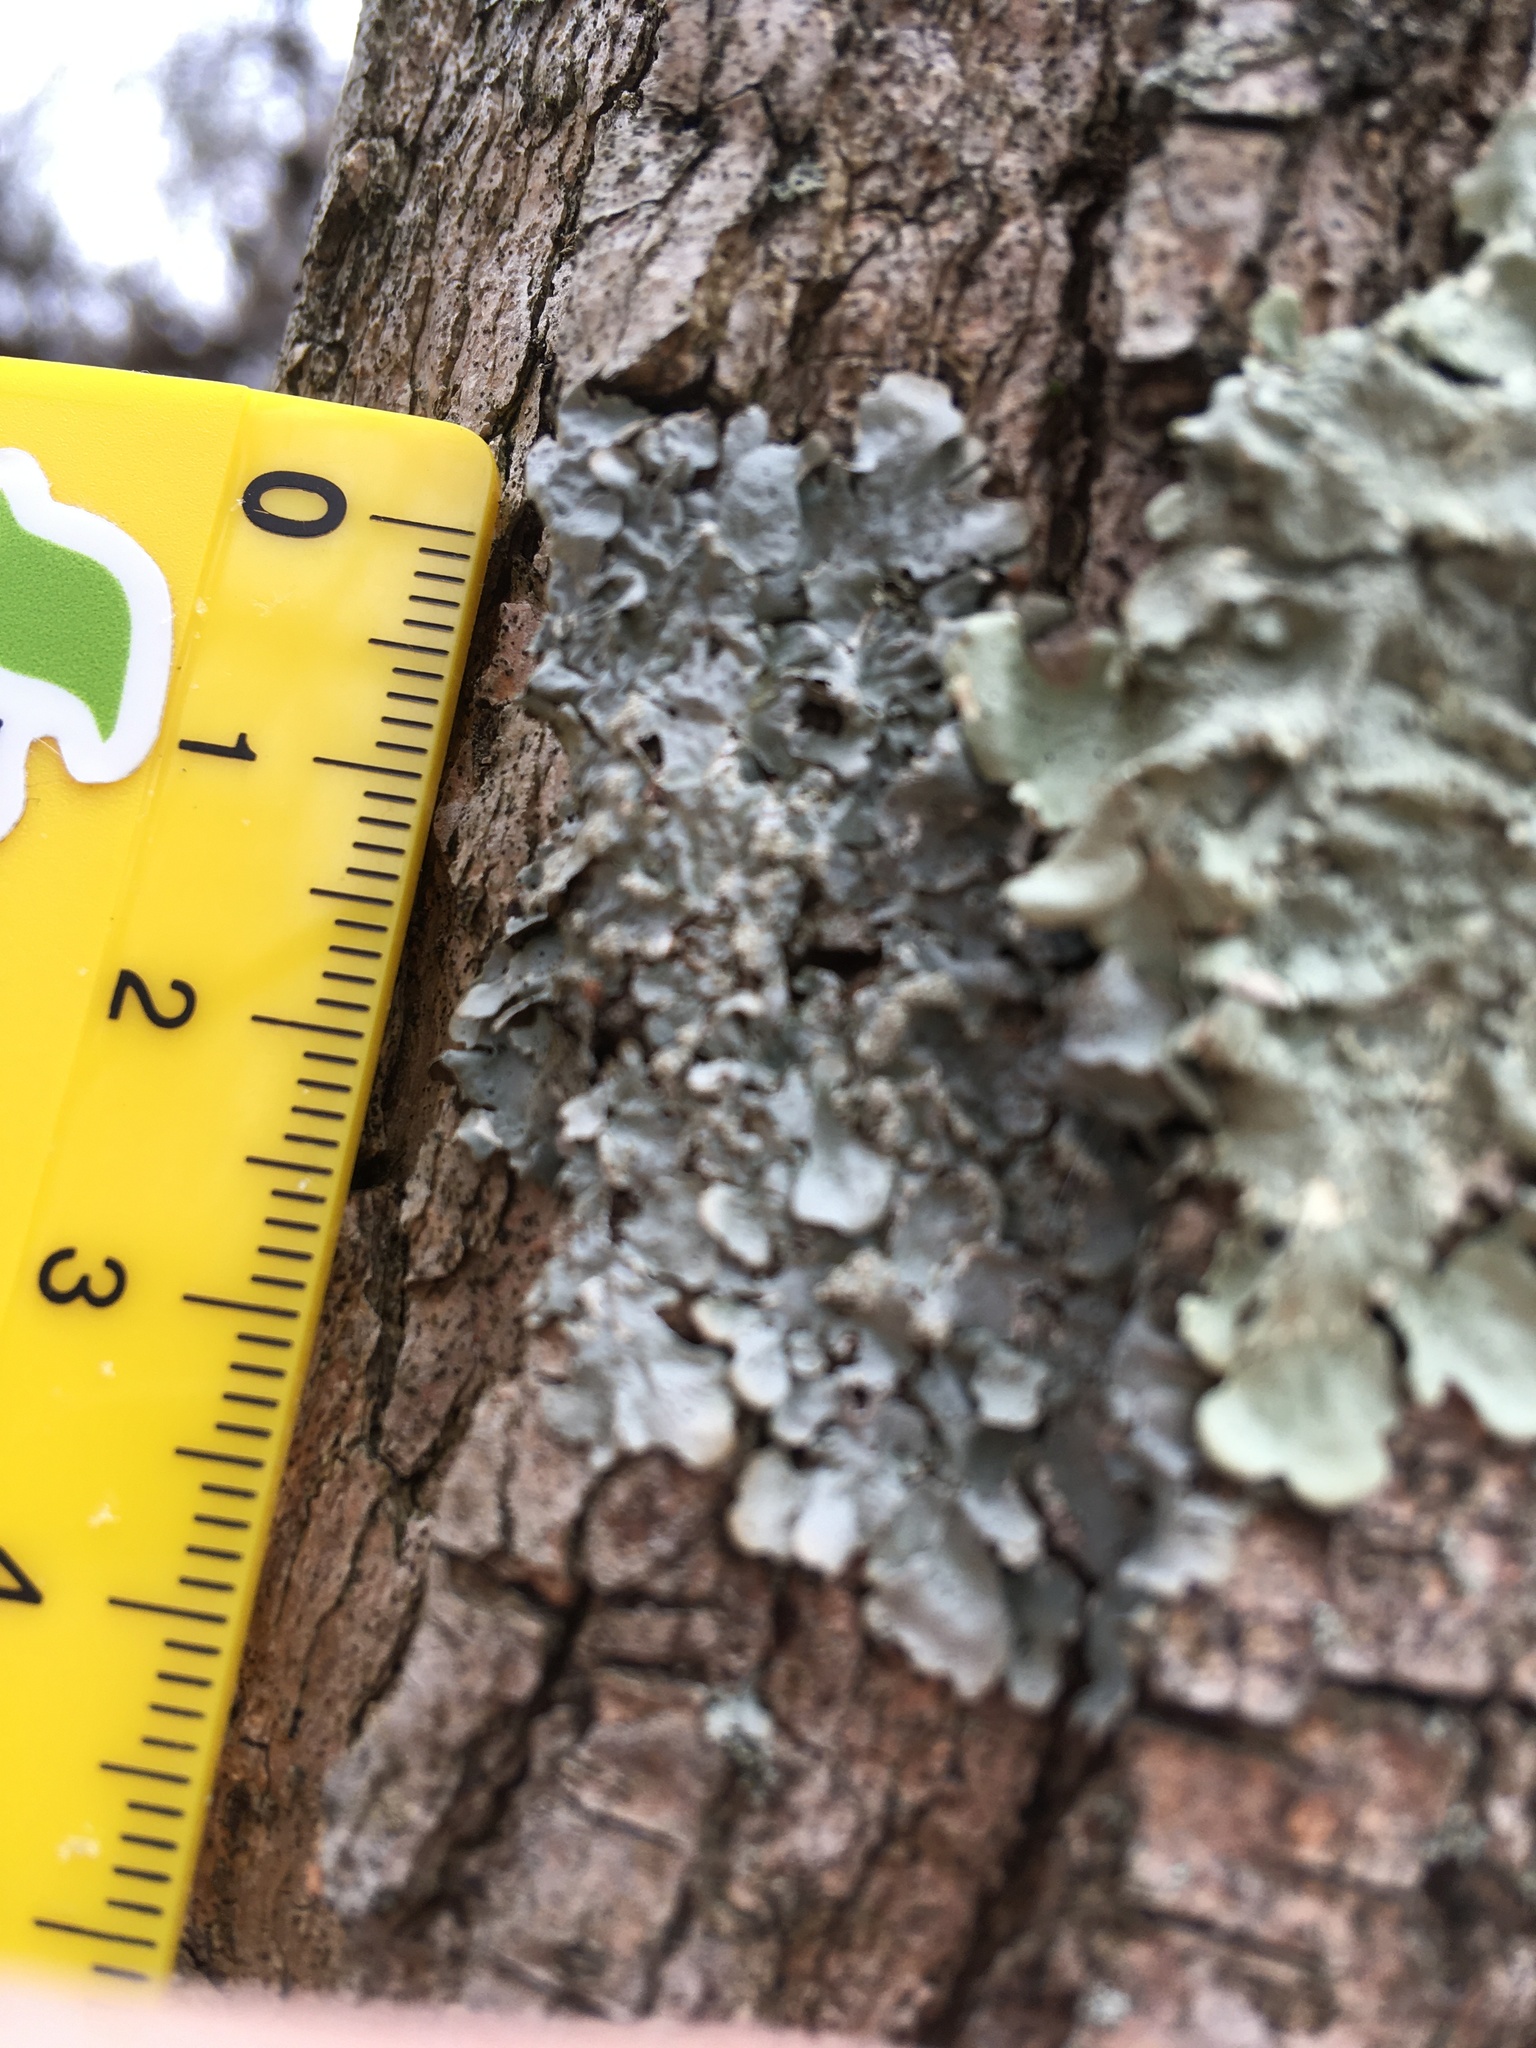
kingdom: Fungi
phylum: Ascomycota
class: Lecanoromycetes
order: Lecanorales
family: Parmeliaceae
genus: Flavoparmelia
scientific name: Flavoparmelia caperata
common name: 40-mile per hour lichen
